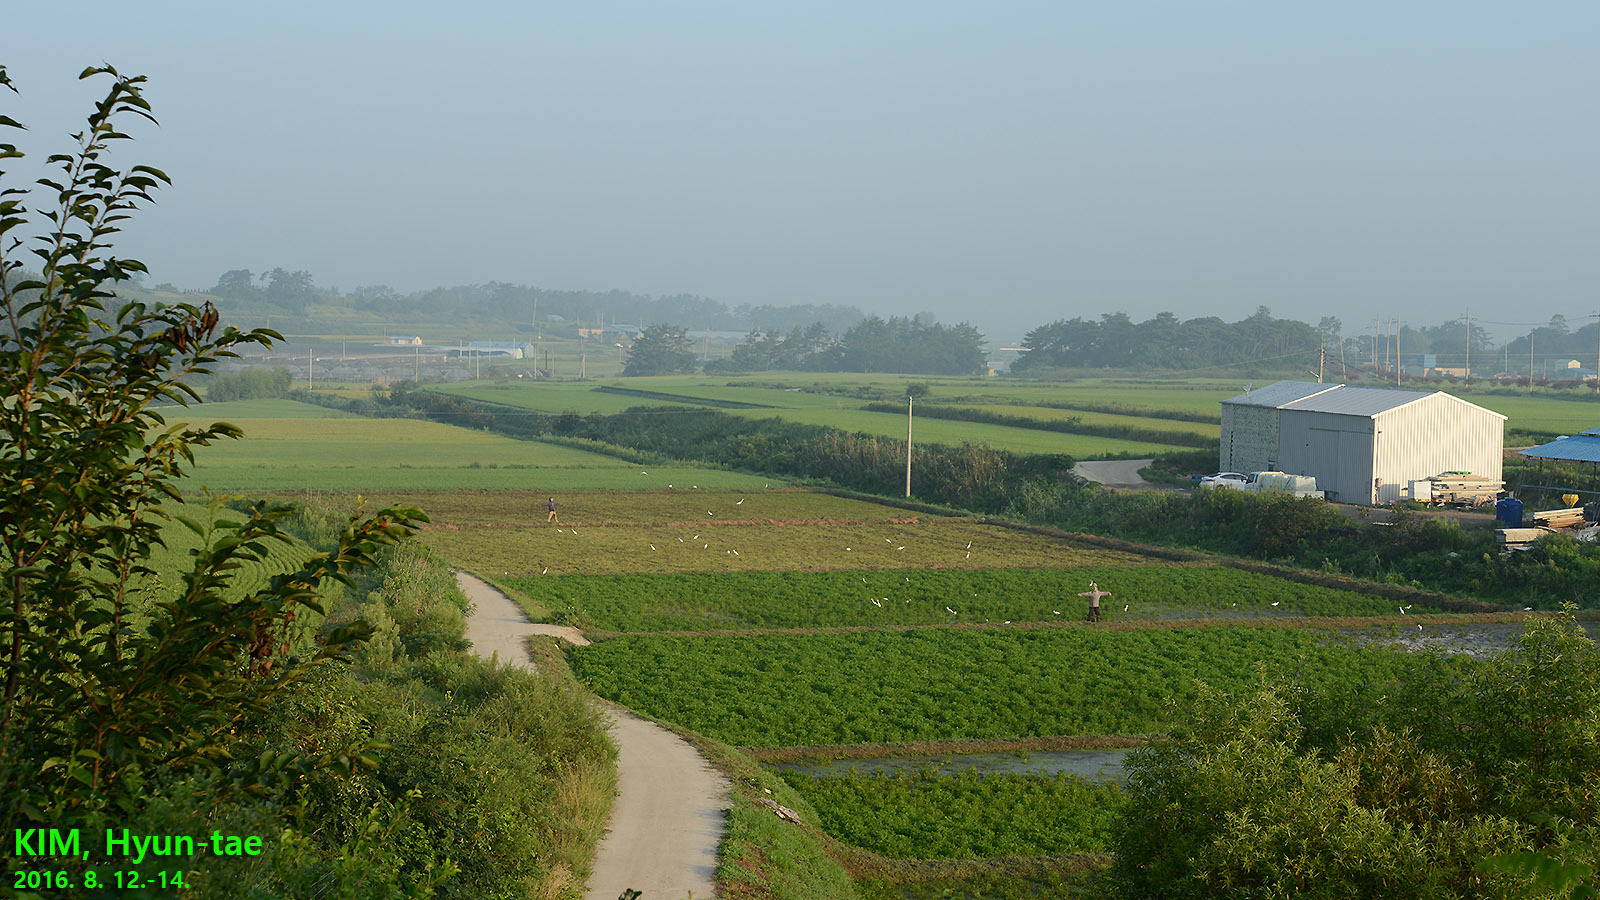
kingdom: Animalia
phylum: Chordata
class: Aves
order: Pelecaniformes
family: Ardeidae
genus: Bubulcus
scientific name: Bubulcus coromandus
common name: Eastern cattle egret
